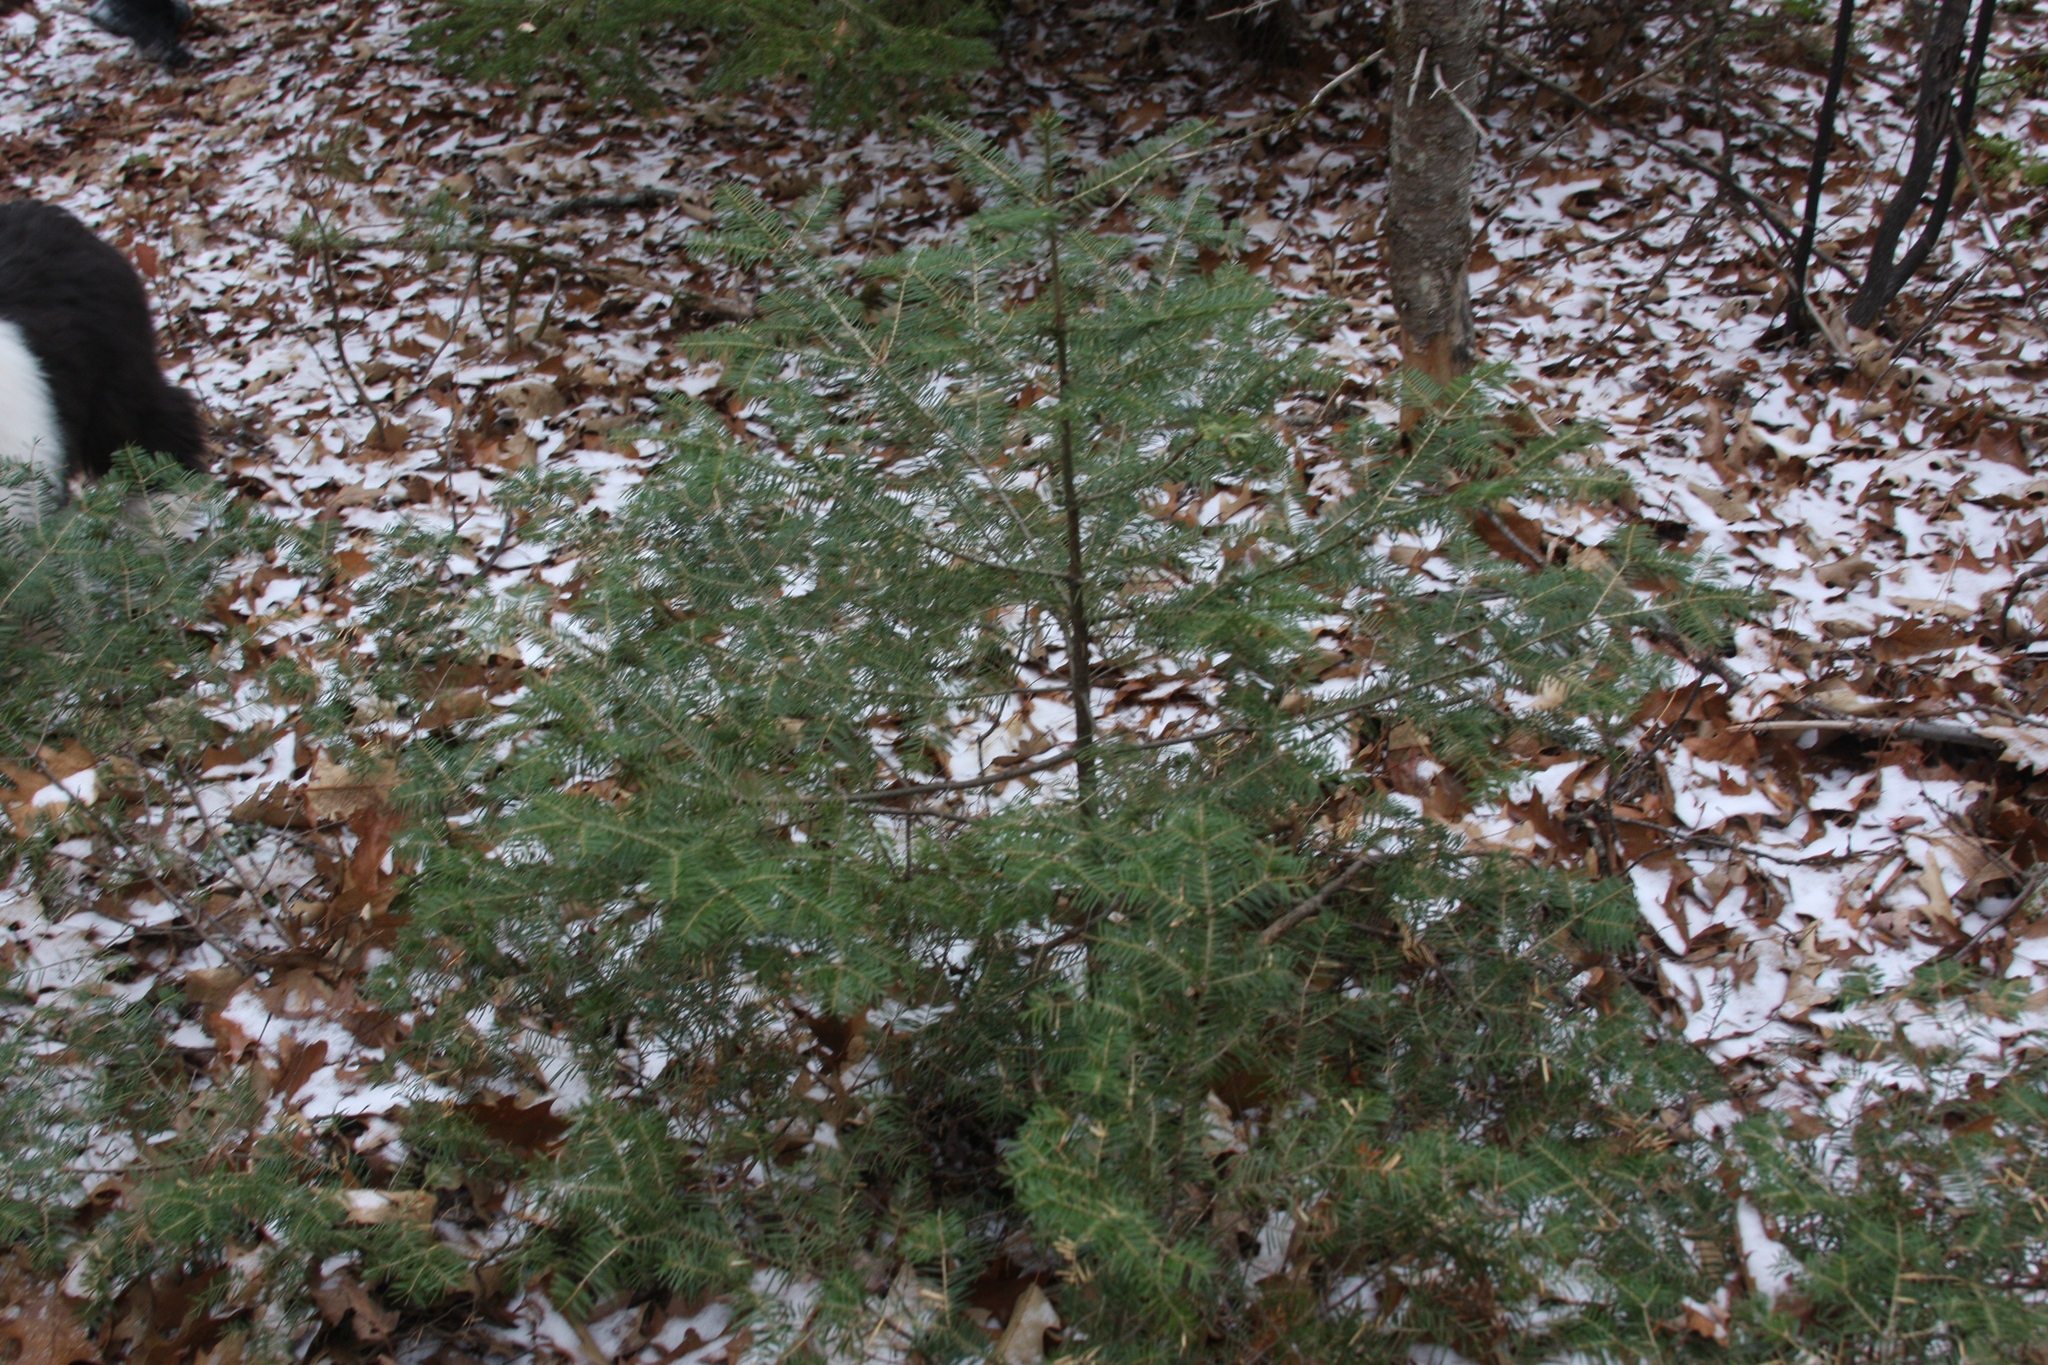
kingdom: Plantae
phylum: Tracheophyta
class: Pinopsida
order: Pinales
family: Pinaceae
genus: Abies
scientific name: Abies balsamea
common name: Balsam fir
